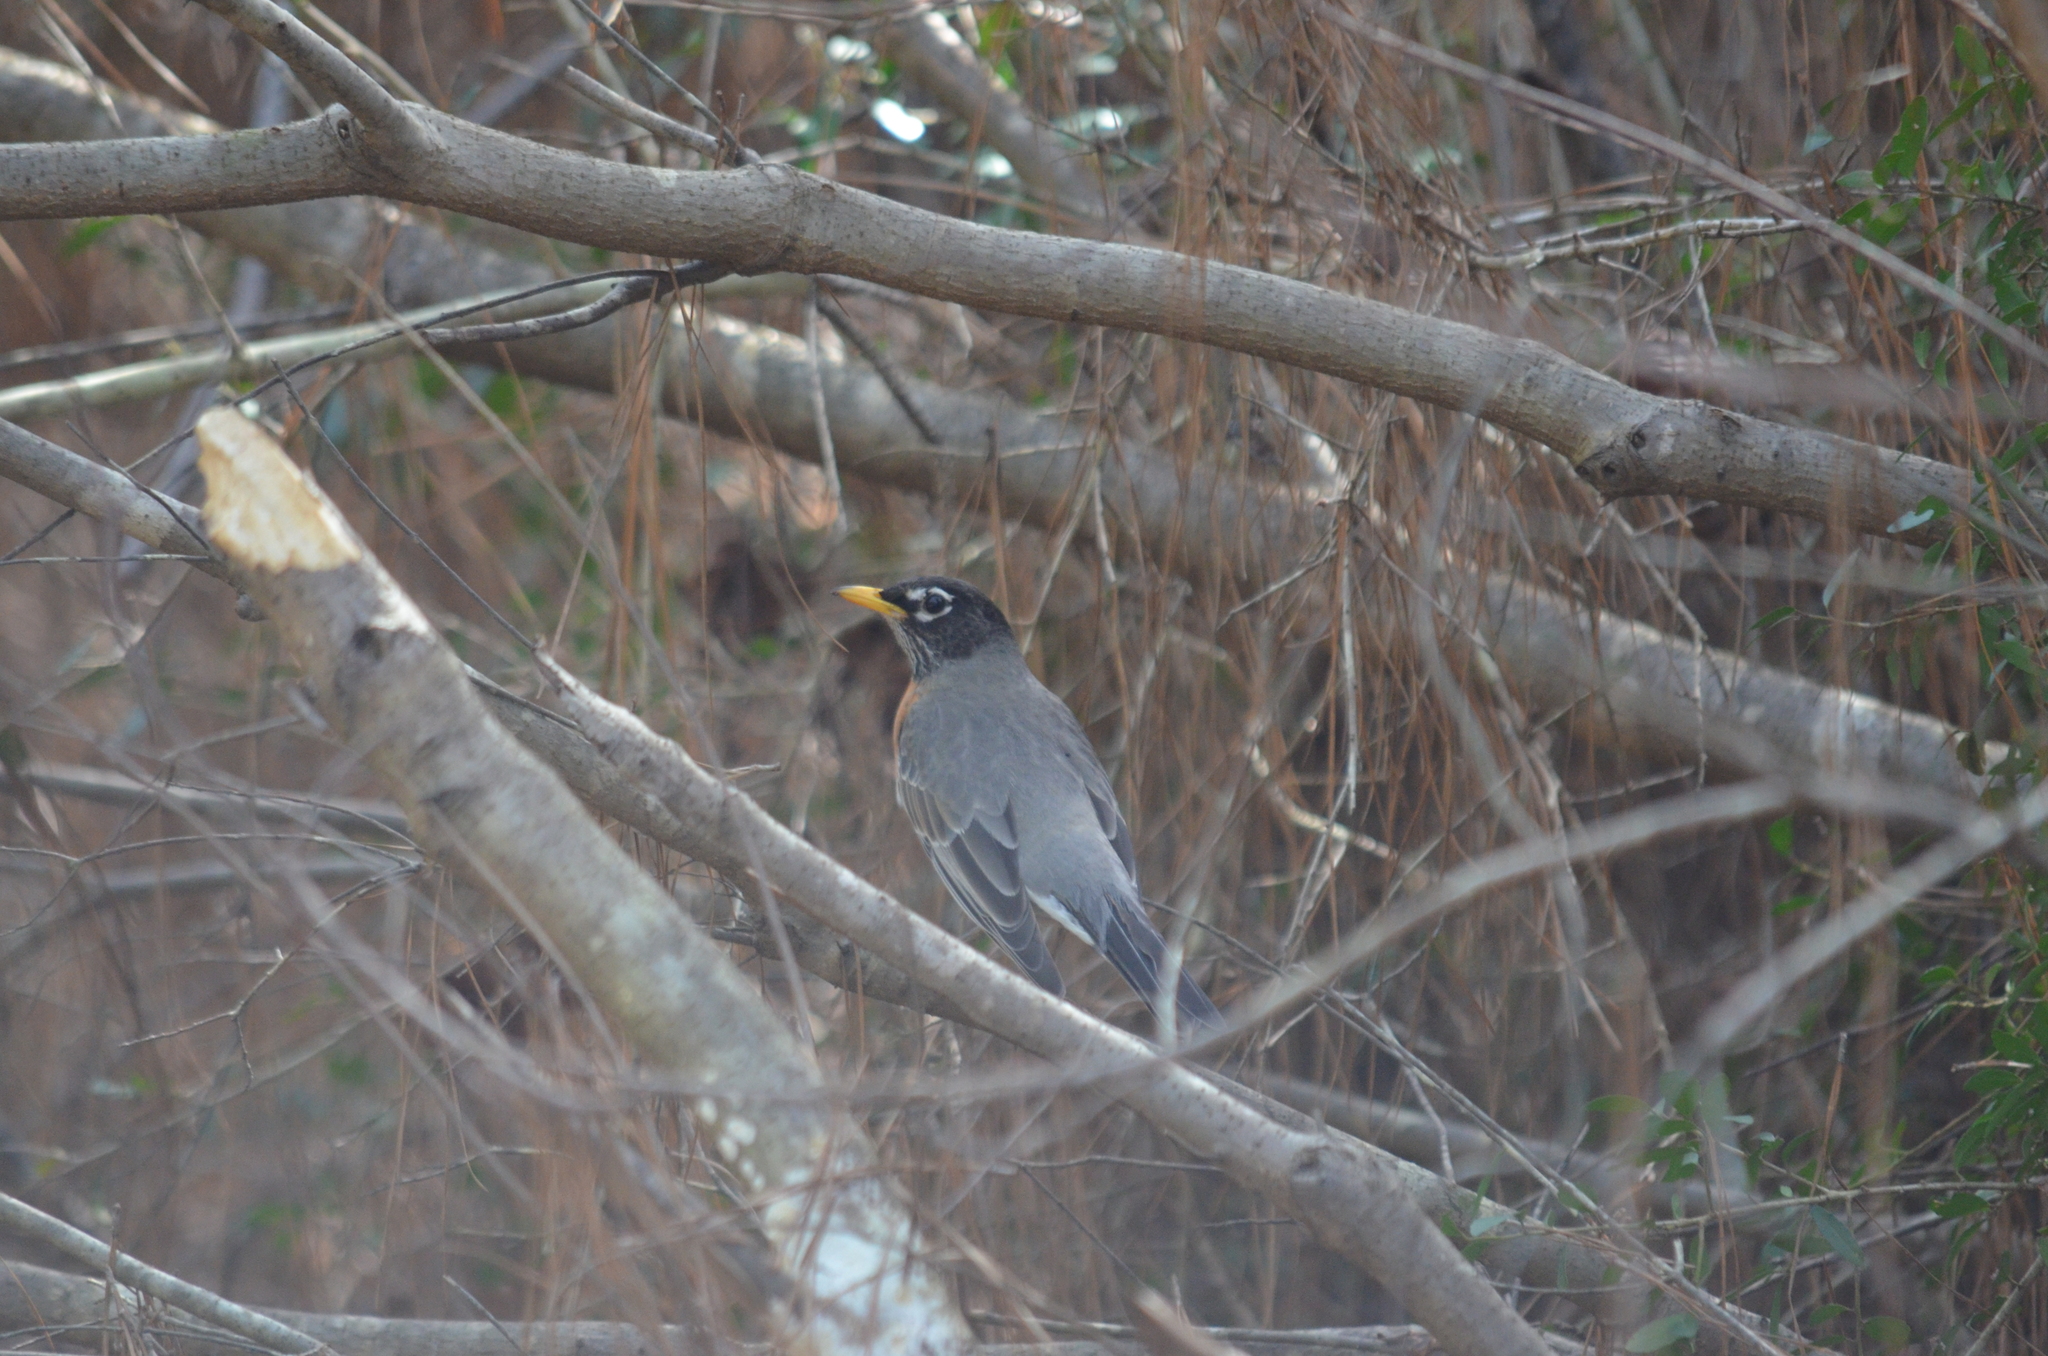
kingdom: Animalia
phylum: Chordata
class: Aves
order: Passeriformes
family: Turdidae
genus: Turdus
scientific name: Turdus migratorius
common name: American robin
